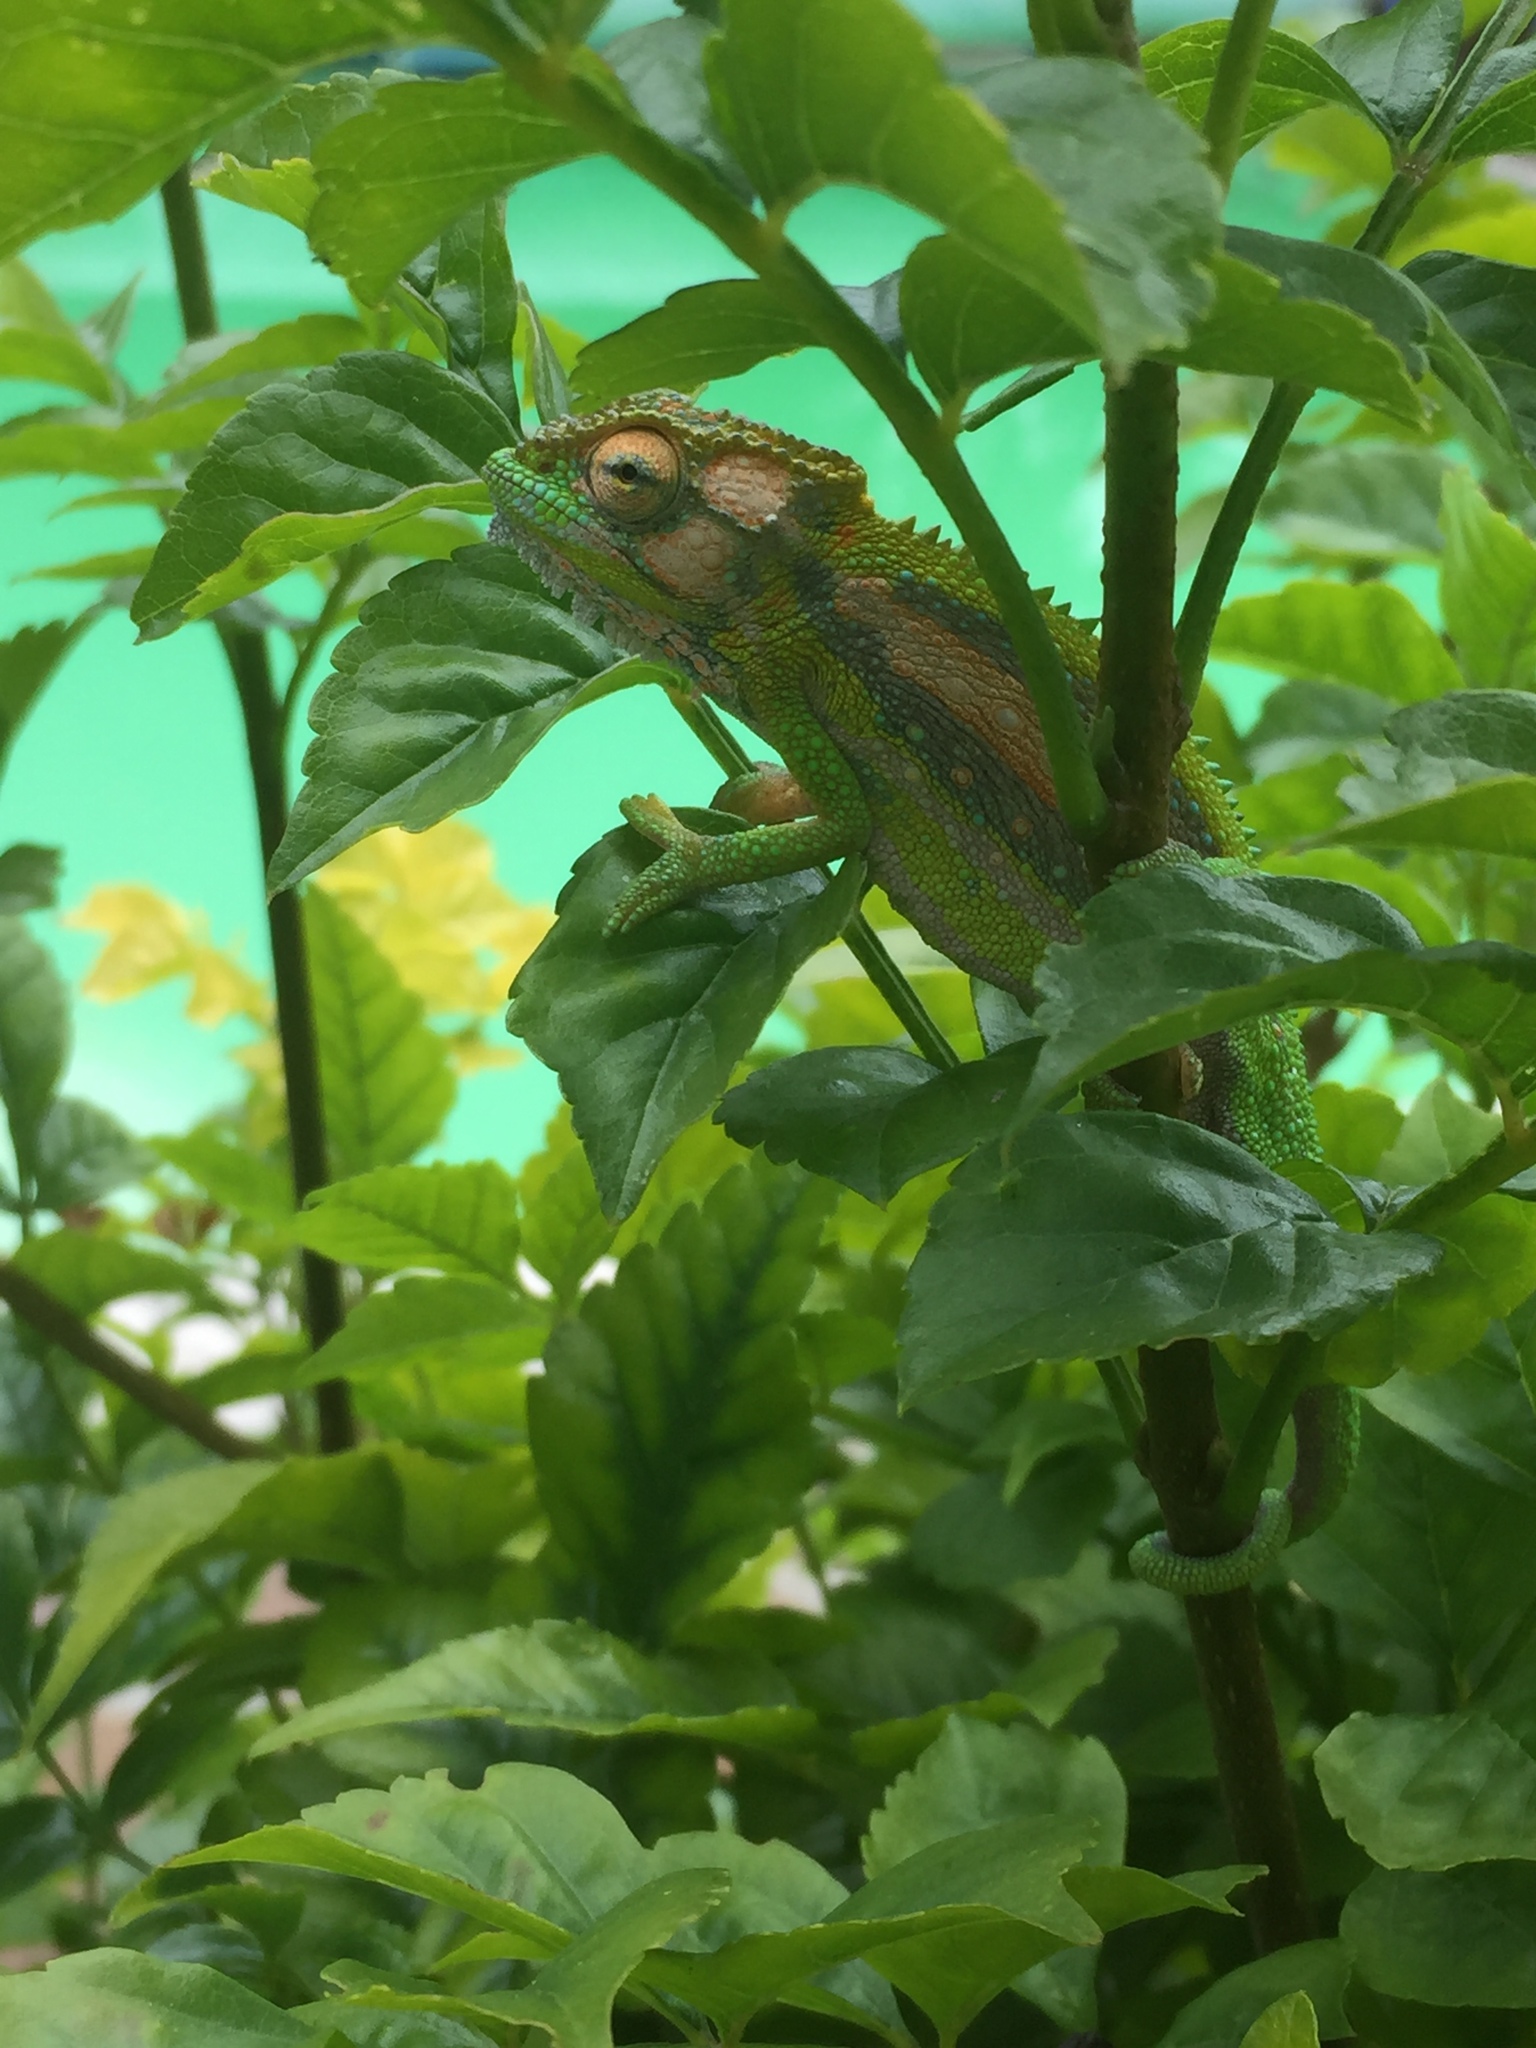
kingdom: Animalia
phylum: Chordata
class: Squamata
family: Chamaeleonidae
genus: Bradypodion
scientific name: Bradypodion pumilum
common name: Cape dwarf chameleon
